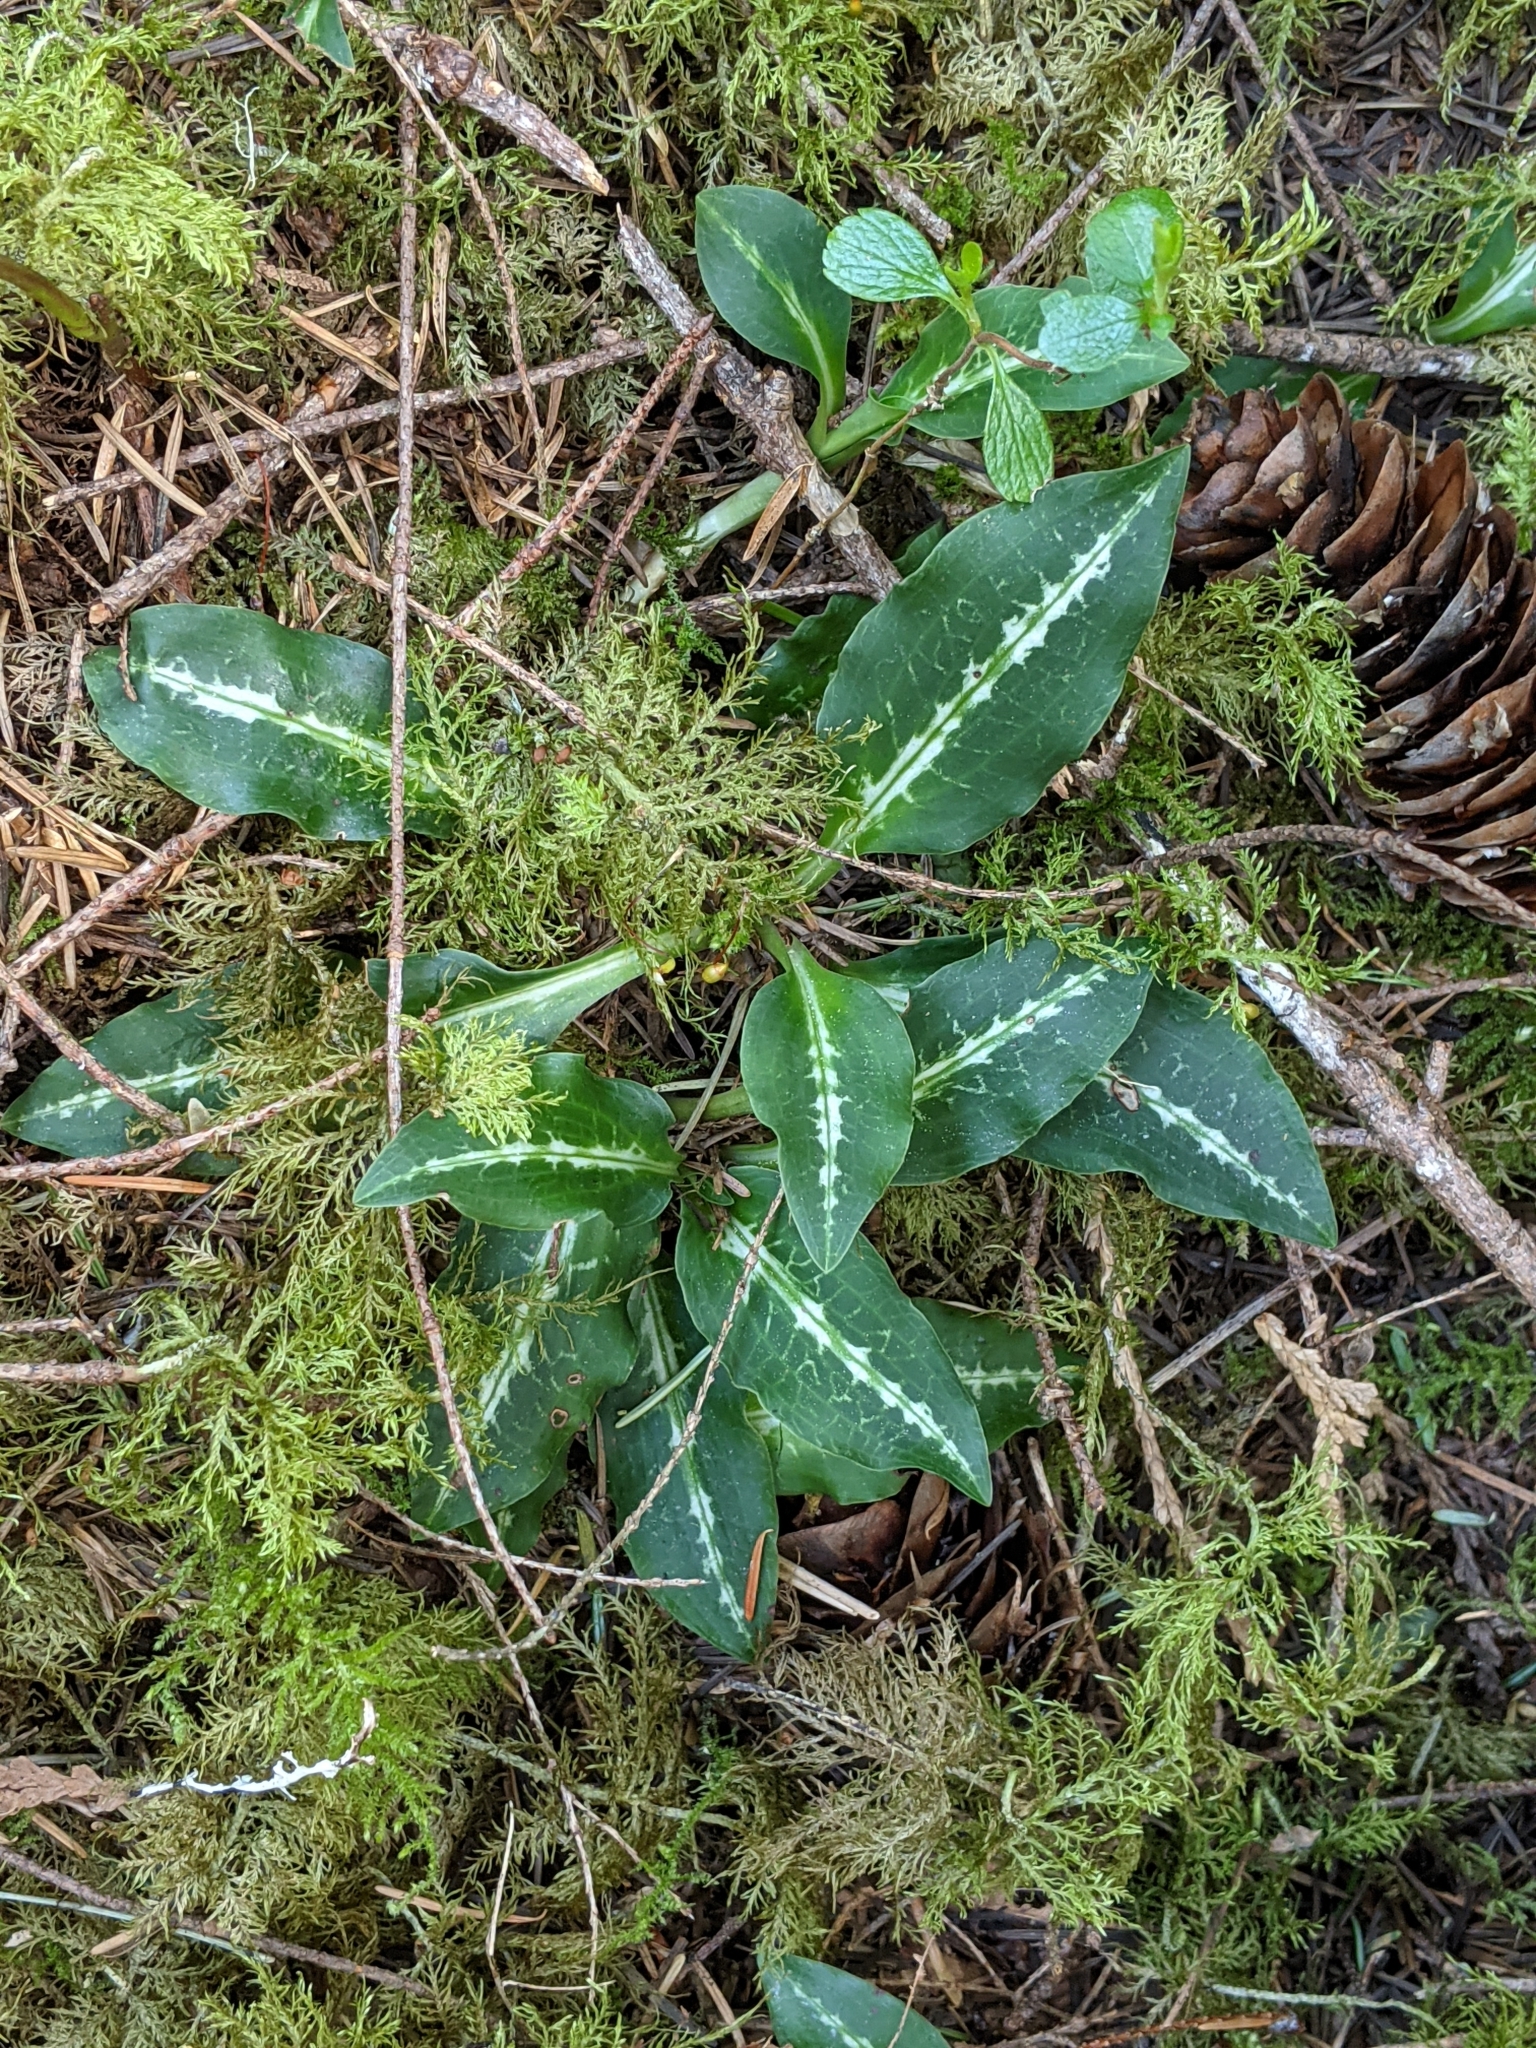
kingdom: Plantae
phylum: Tracheophyta
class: Liliopsida
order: Asparagales
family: Orchidaceae
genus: Goodyera
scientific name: Goodyera oblongifolia
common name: Giant rattlesnake-plantain
